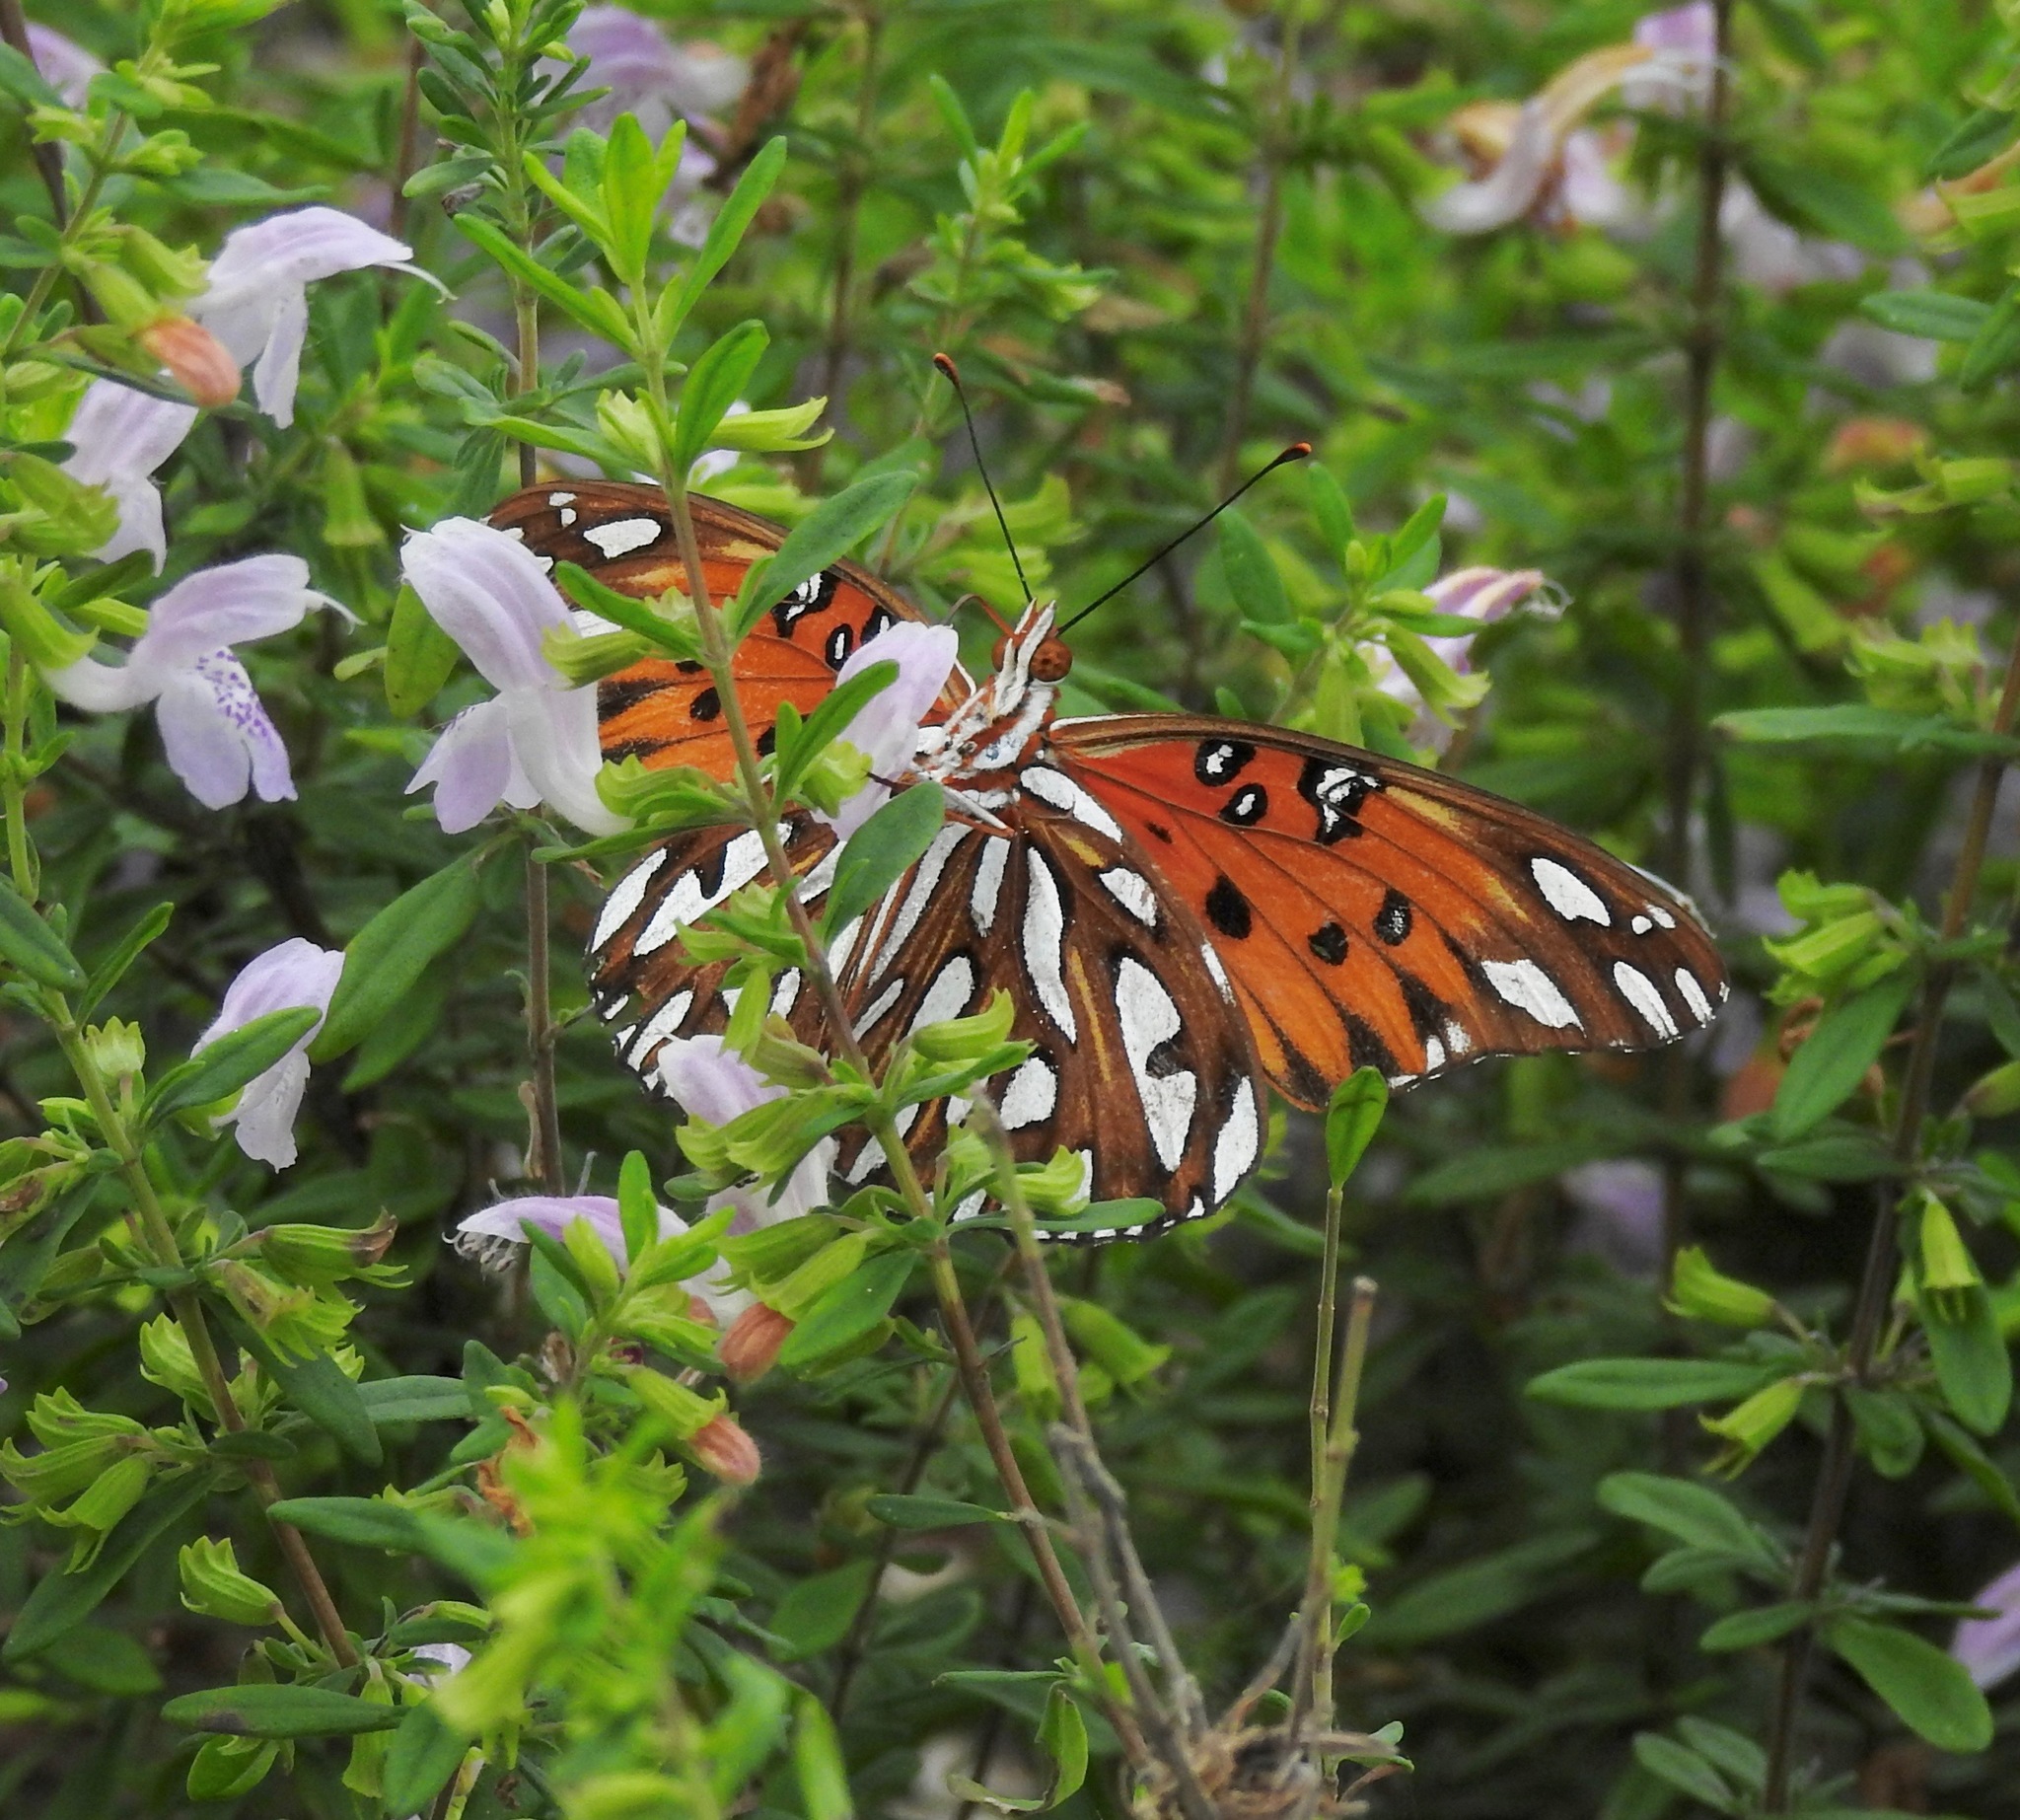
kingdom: Animalia
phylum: Arthropoda
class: Insecta
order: Lepidoptera
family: Nymphalidae
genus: Dione
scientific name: Dione vanillae
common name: Gulf fritillary
